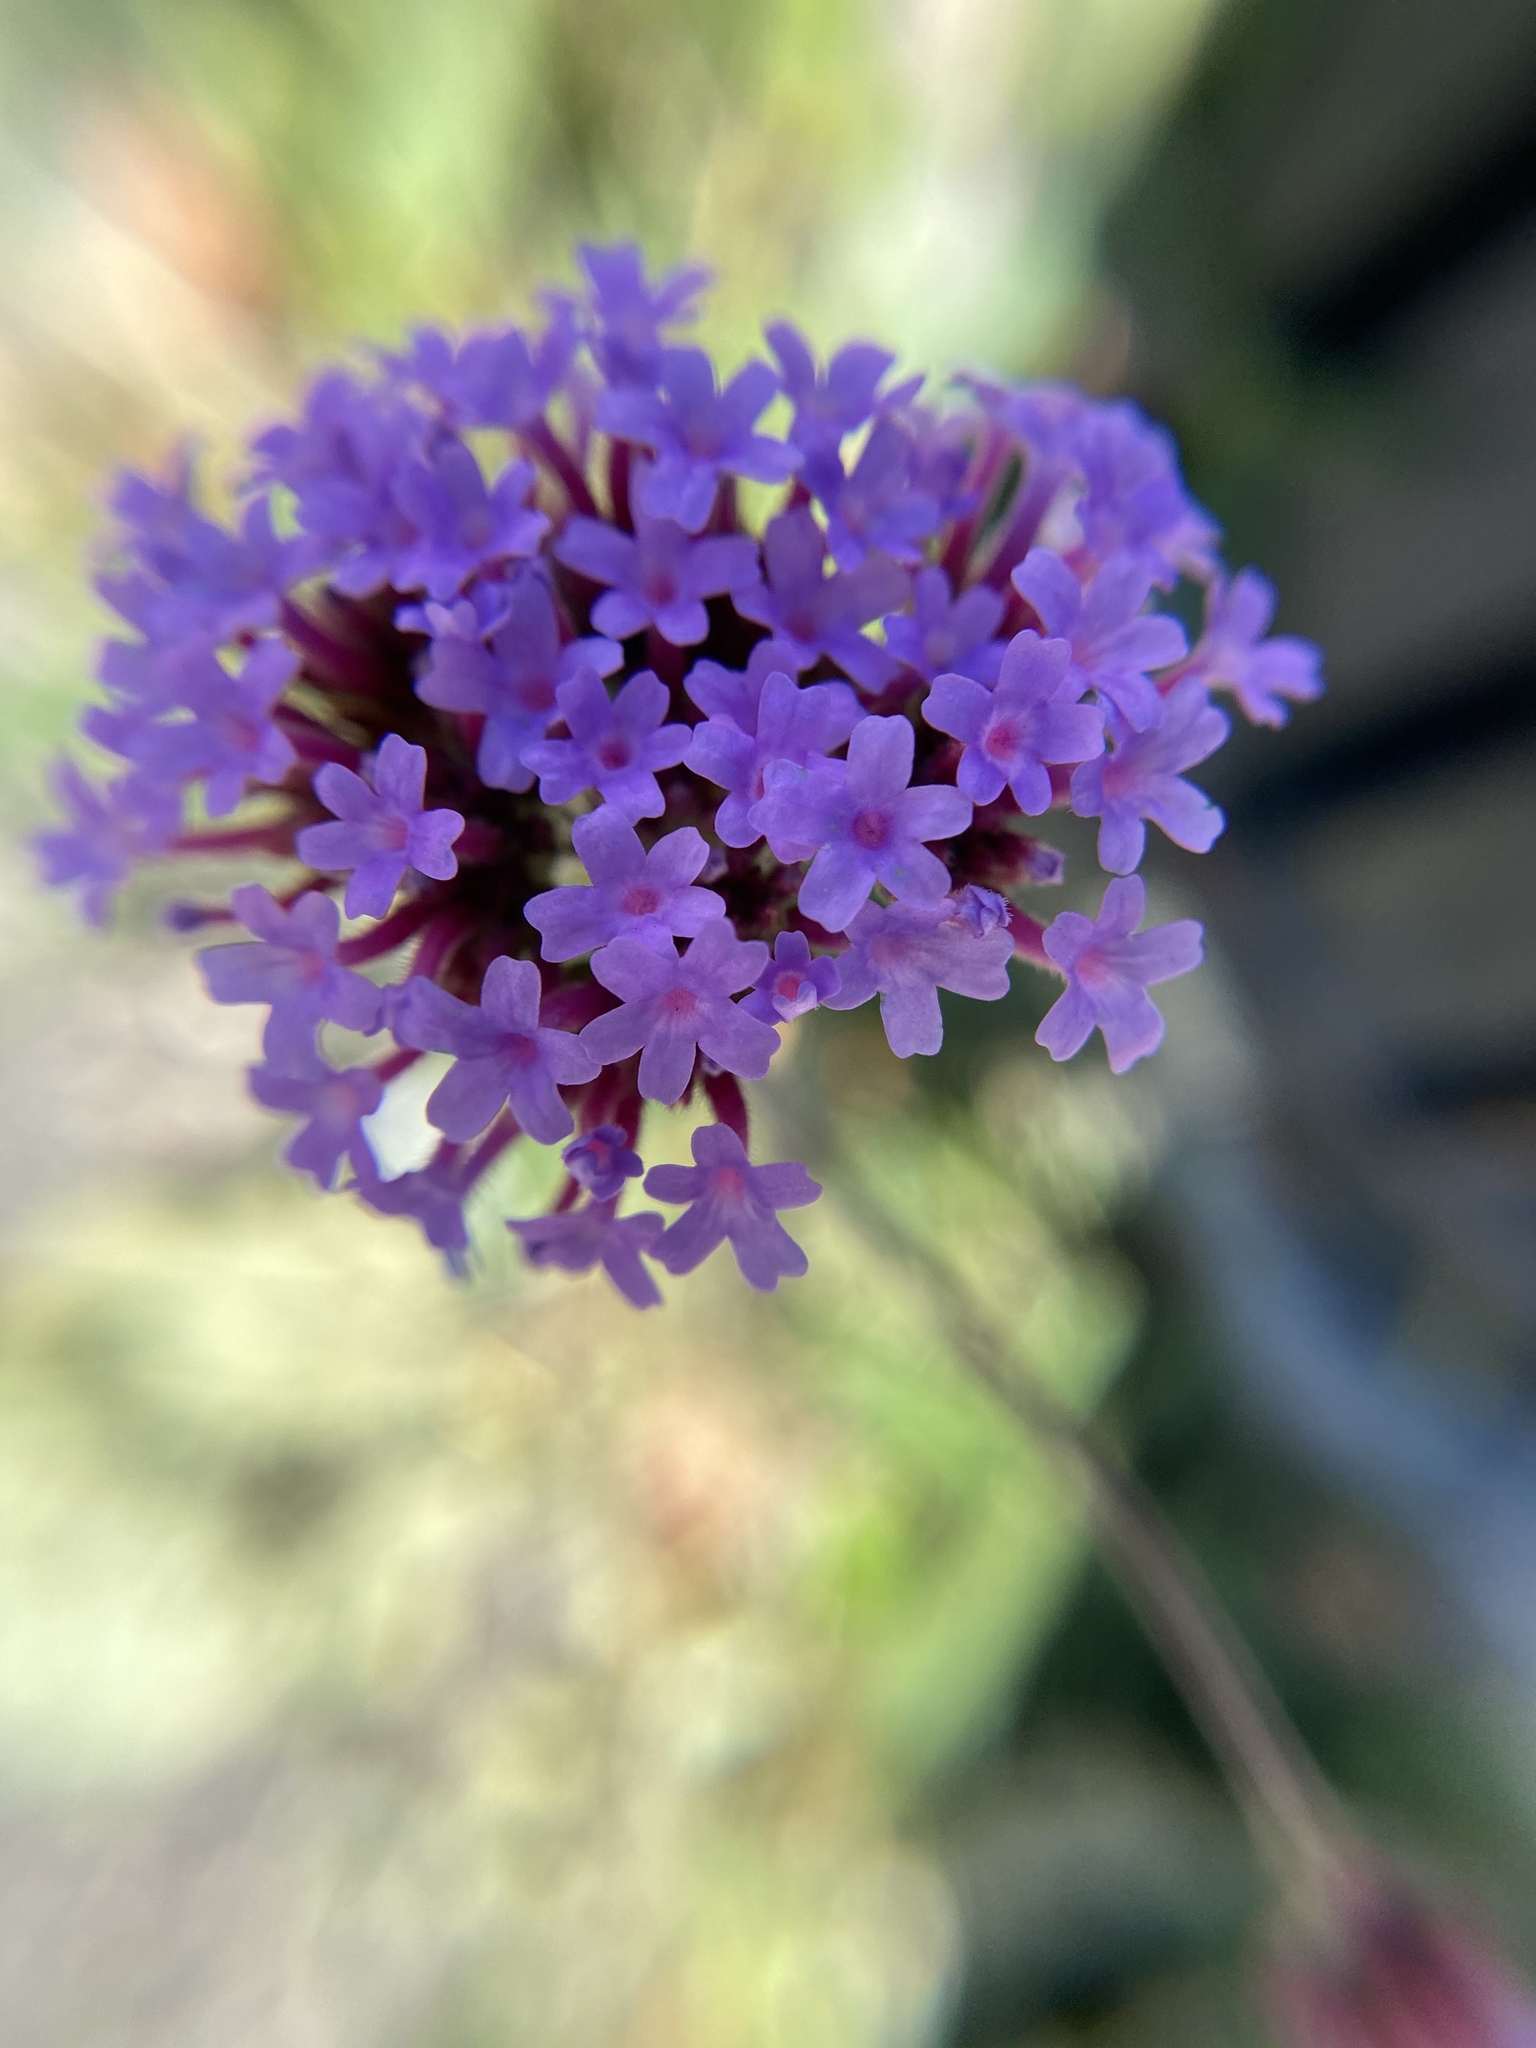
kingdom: Plantae
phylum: Tracheophyta
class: Magnoliopsida
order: Lamiales
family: Verbenaceae
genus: Verbena
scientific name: Verbena bonariensis
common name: Purpletop vervain
